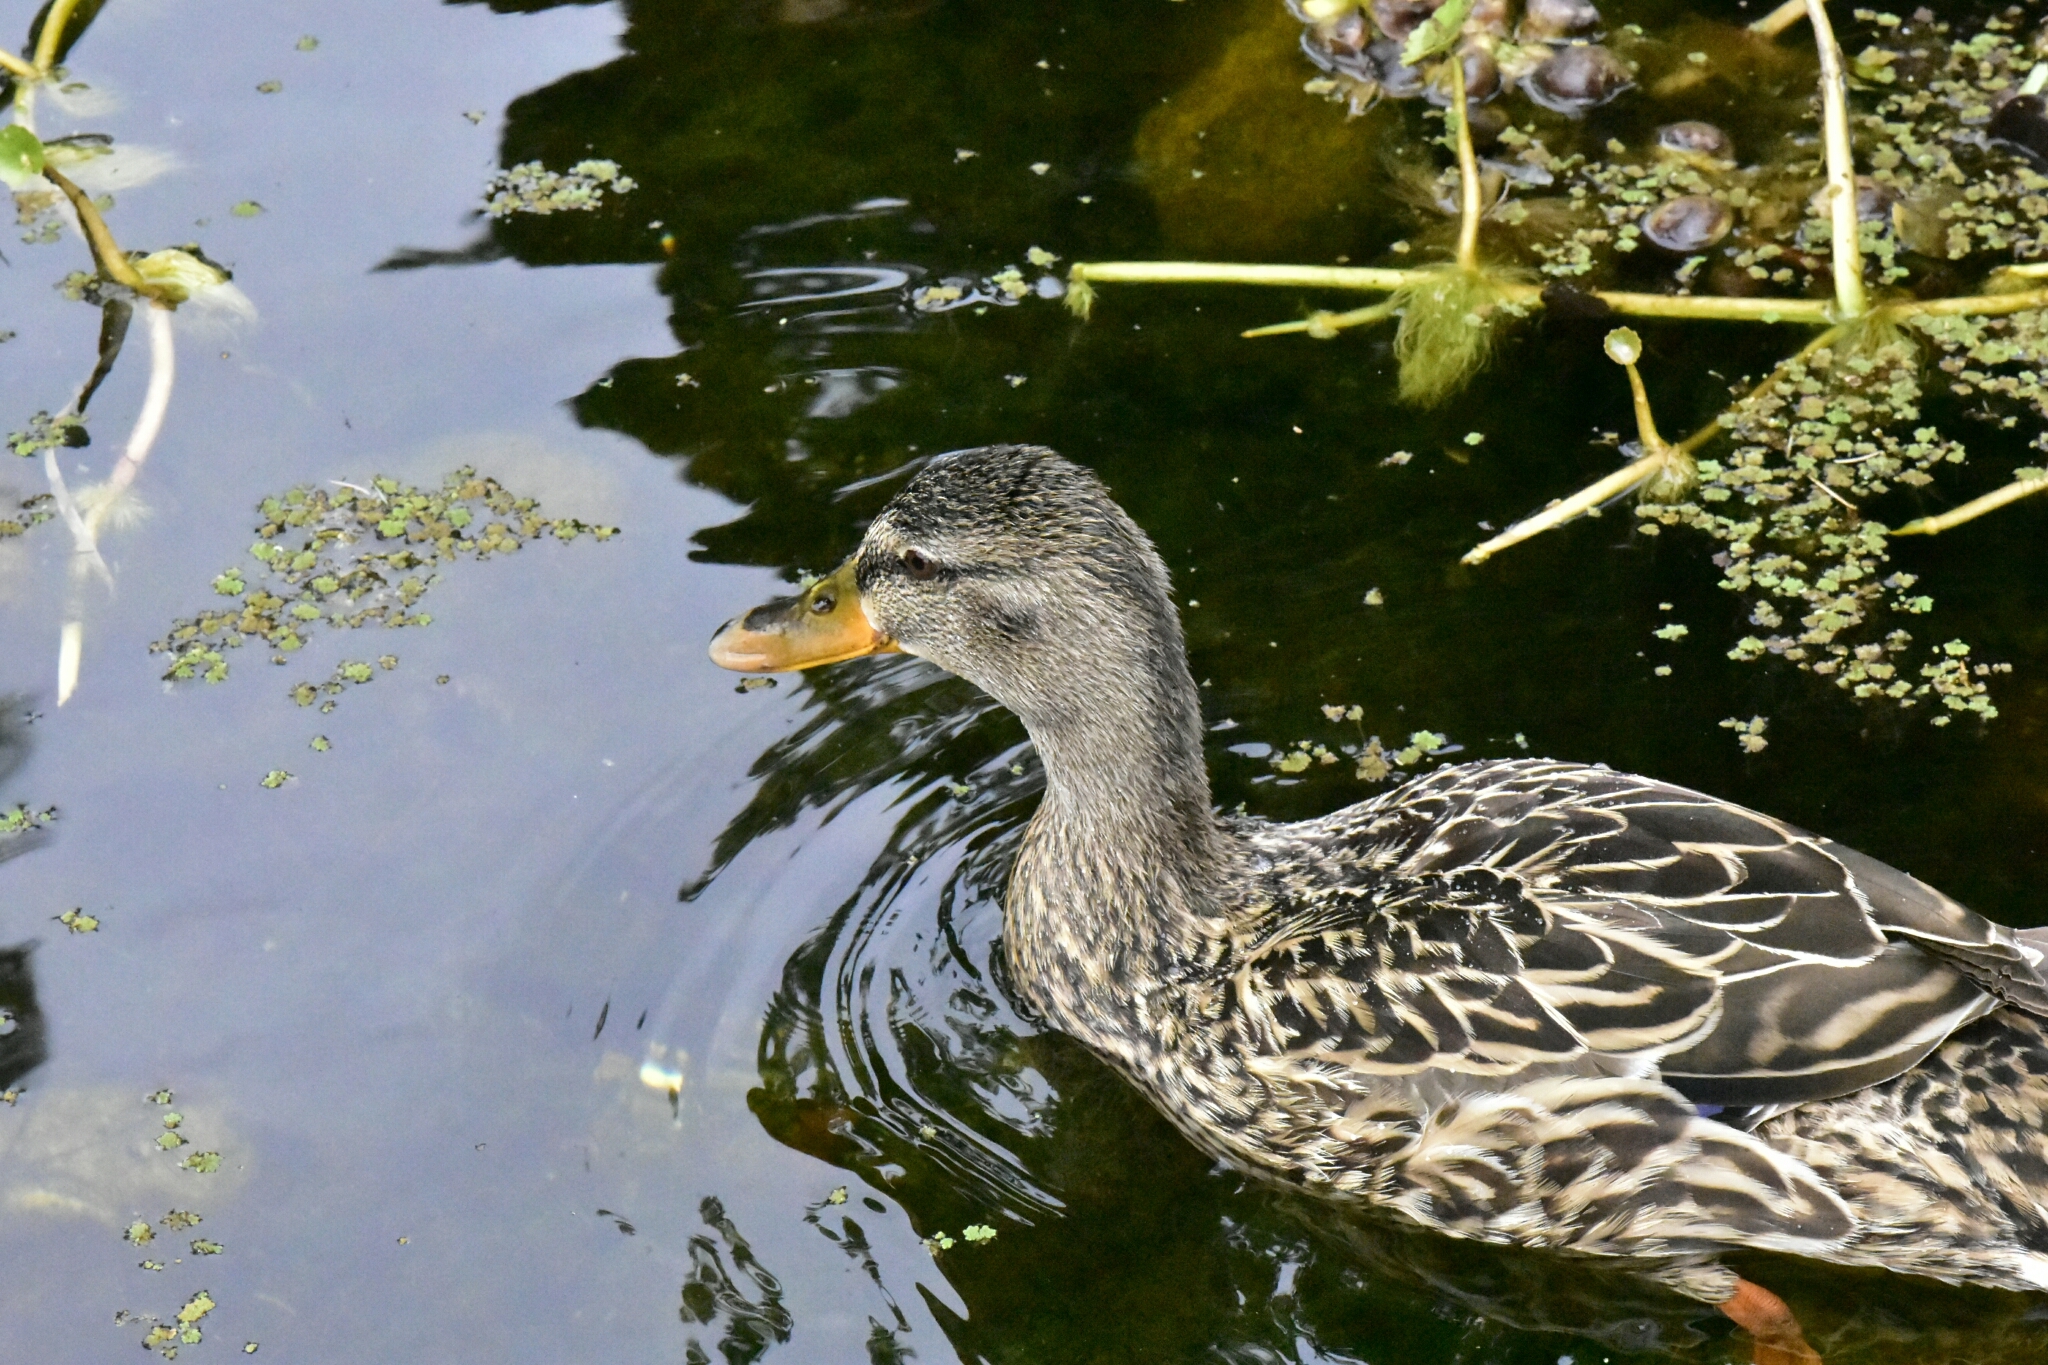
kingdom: Animalia
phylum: Chordata
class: Aves
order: Anseriformes
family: Anatidae
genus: Anas
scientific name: Anas platyrhynchos
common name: Mallard
